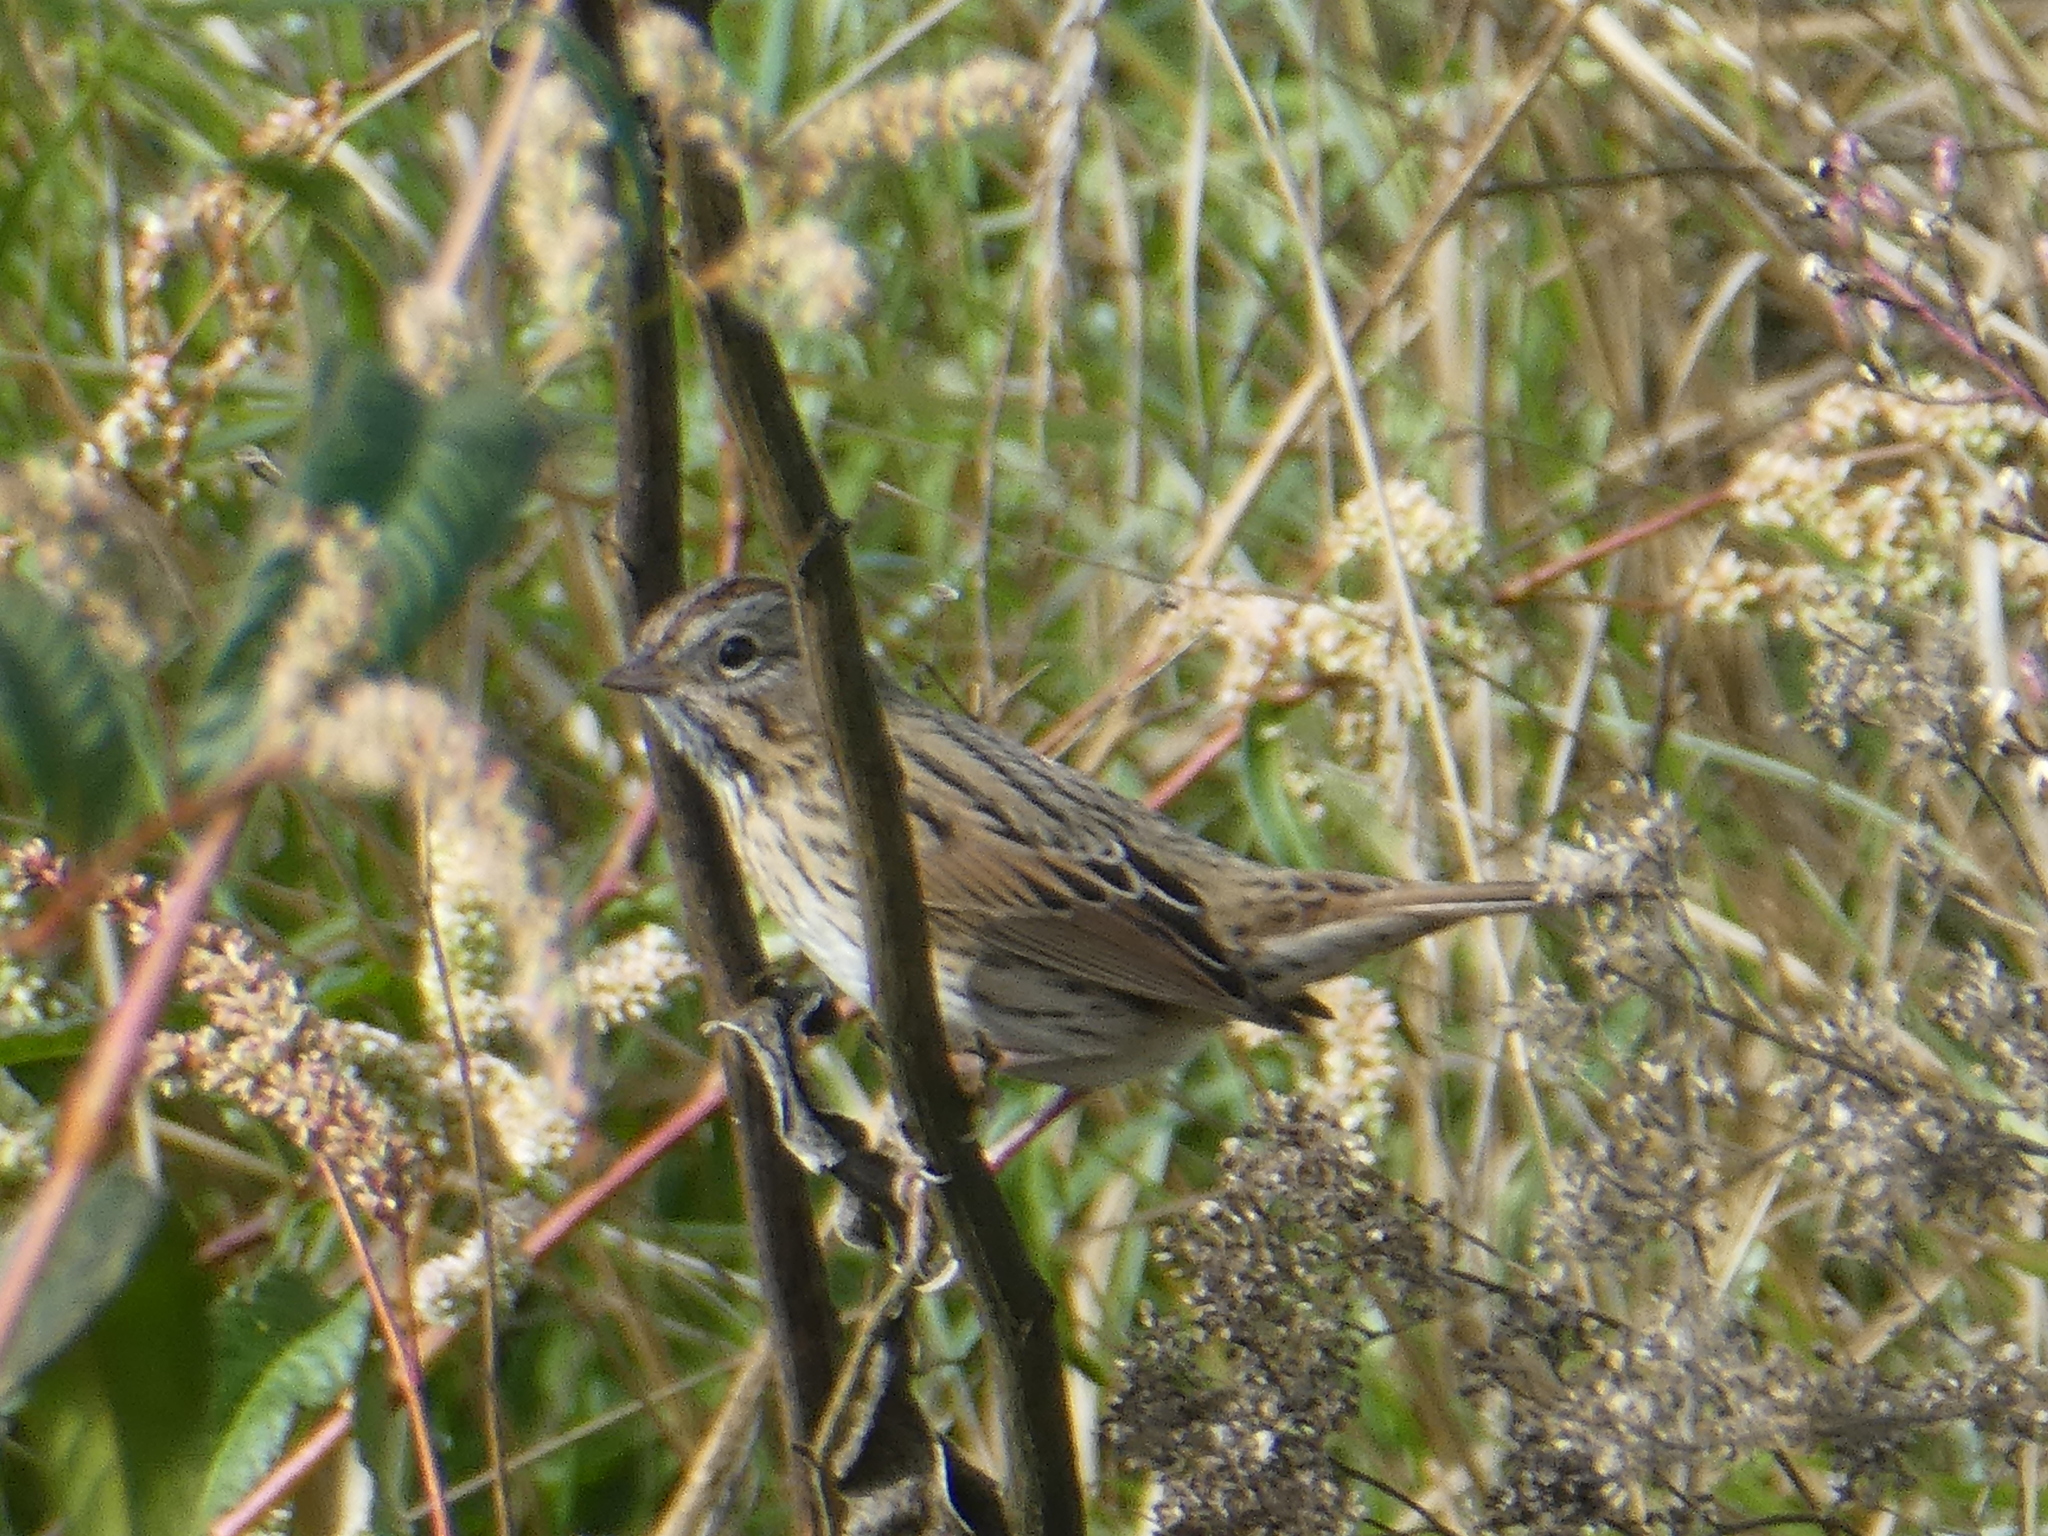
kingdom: Animalia
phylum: Chordata
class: Aves
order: Passeriformes
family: Passerellidae
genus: Melospiza
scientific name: Melospiza lincolnii
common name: Lincoln's sparrow
